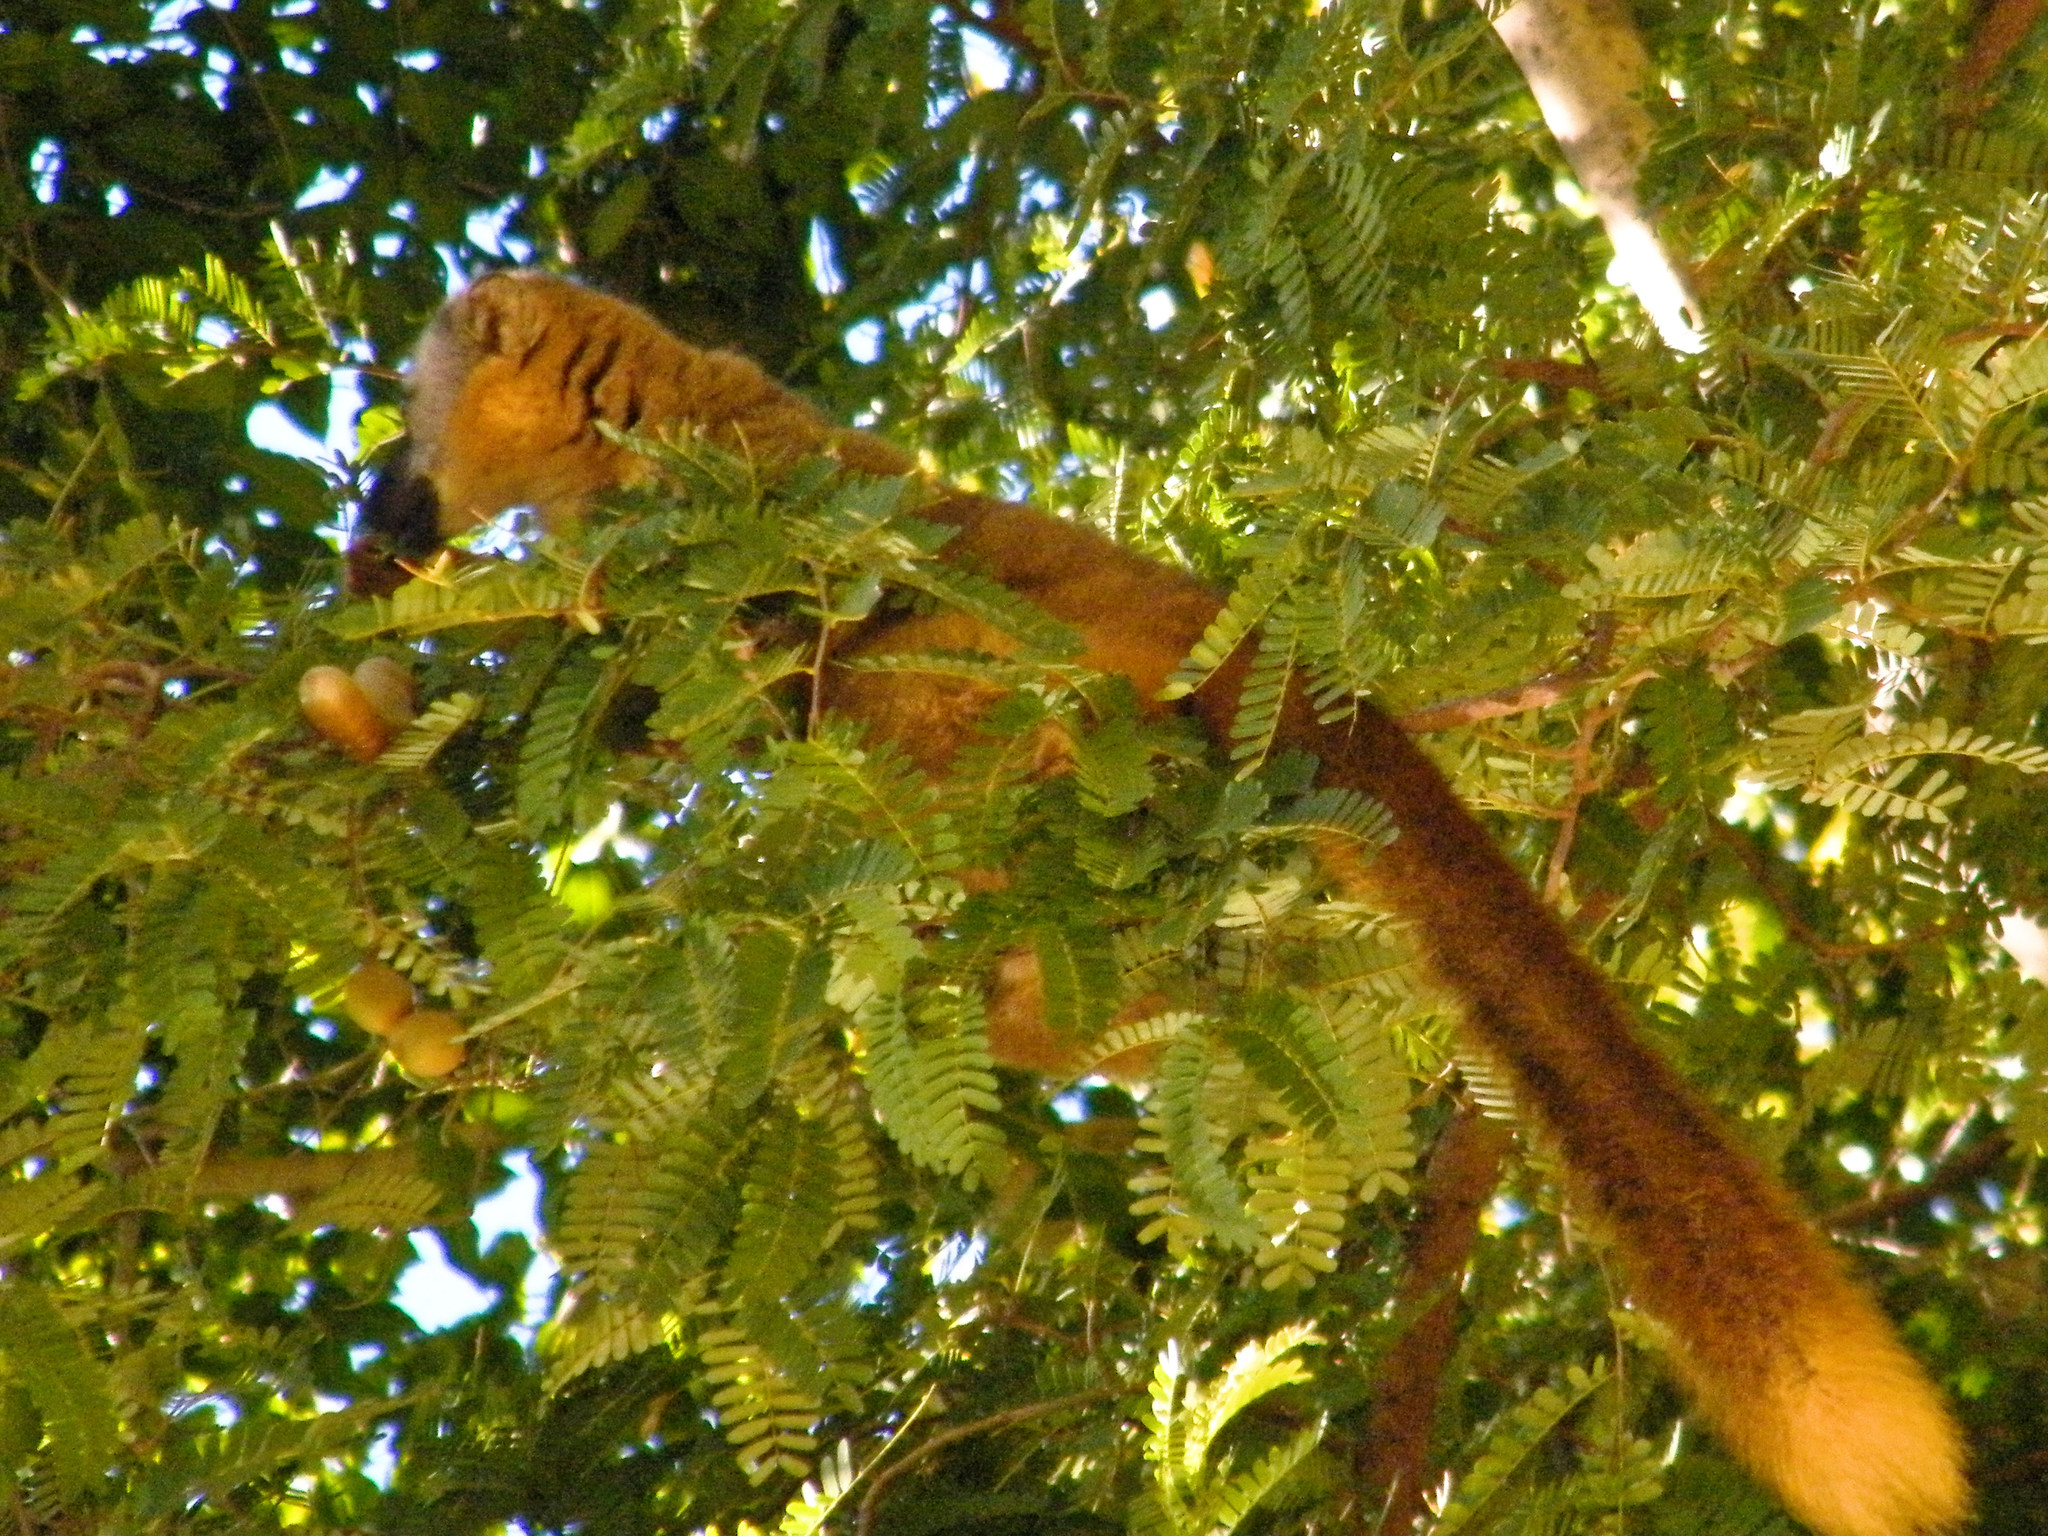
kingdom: Animalia
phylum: Chordata
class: Mammalia
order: Primates
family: Lemuridae
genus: Eulemur
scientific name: Eulemur rufifrons
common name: Red-fronted brown lemur
